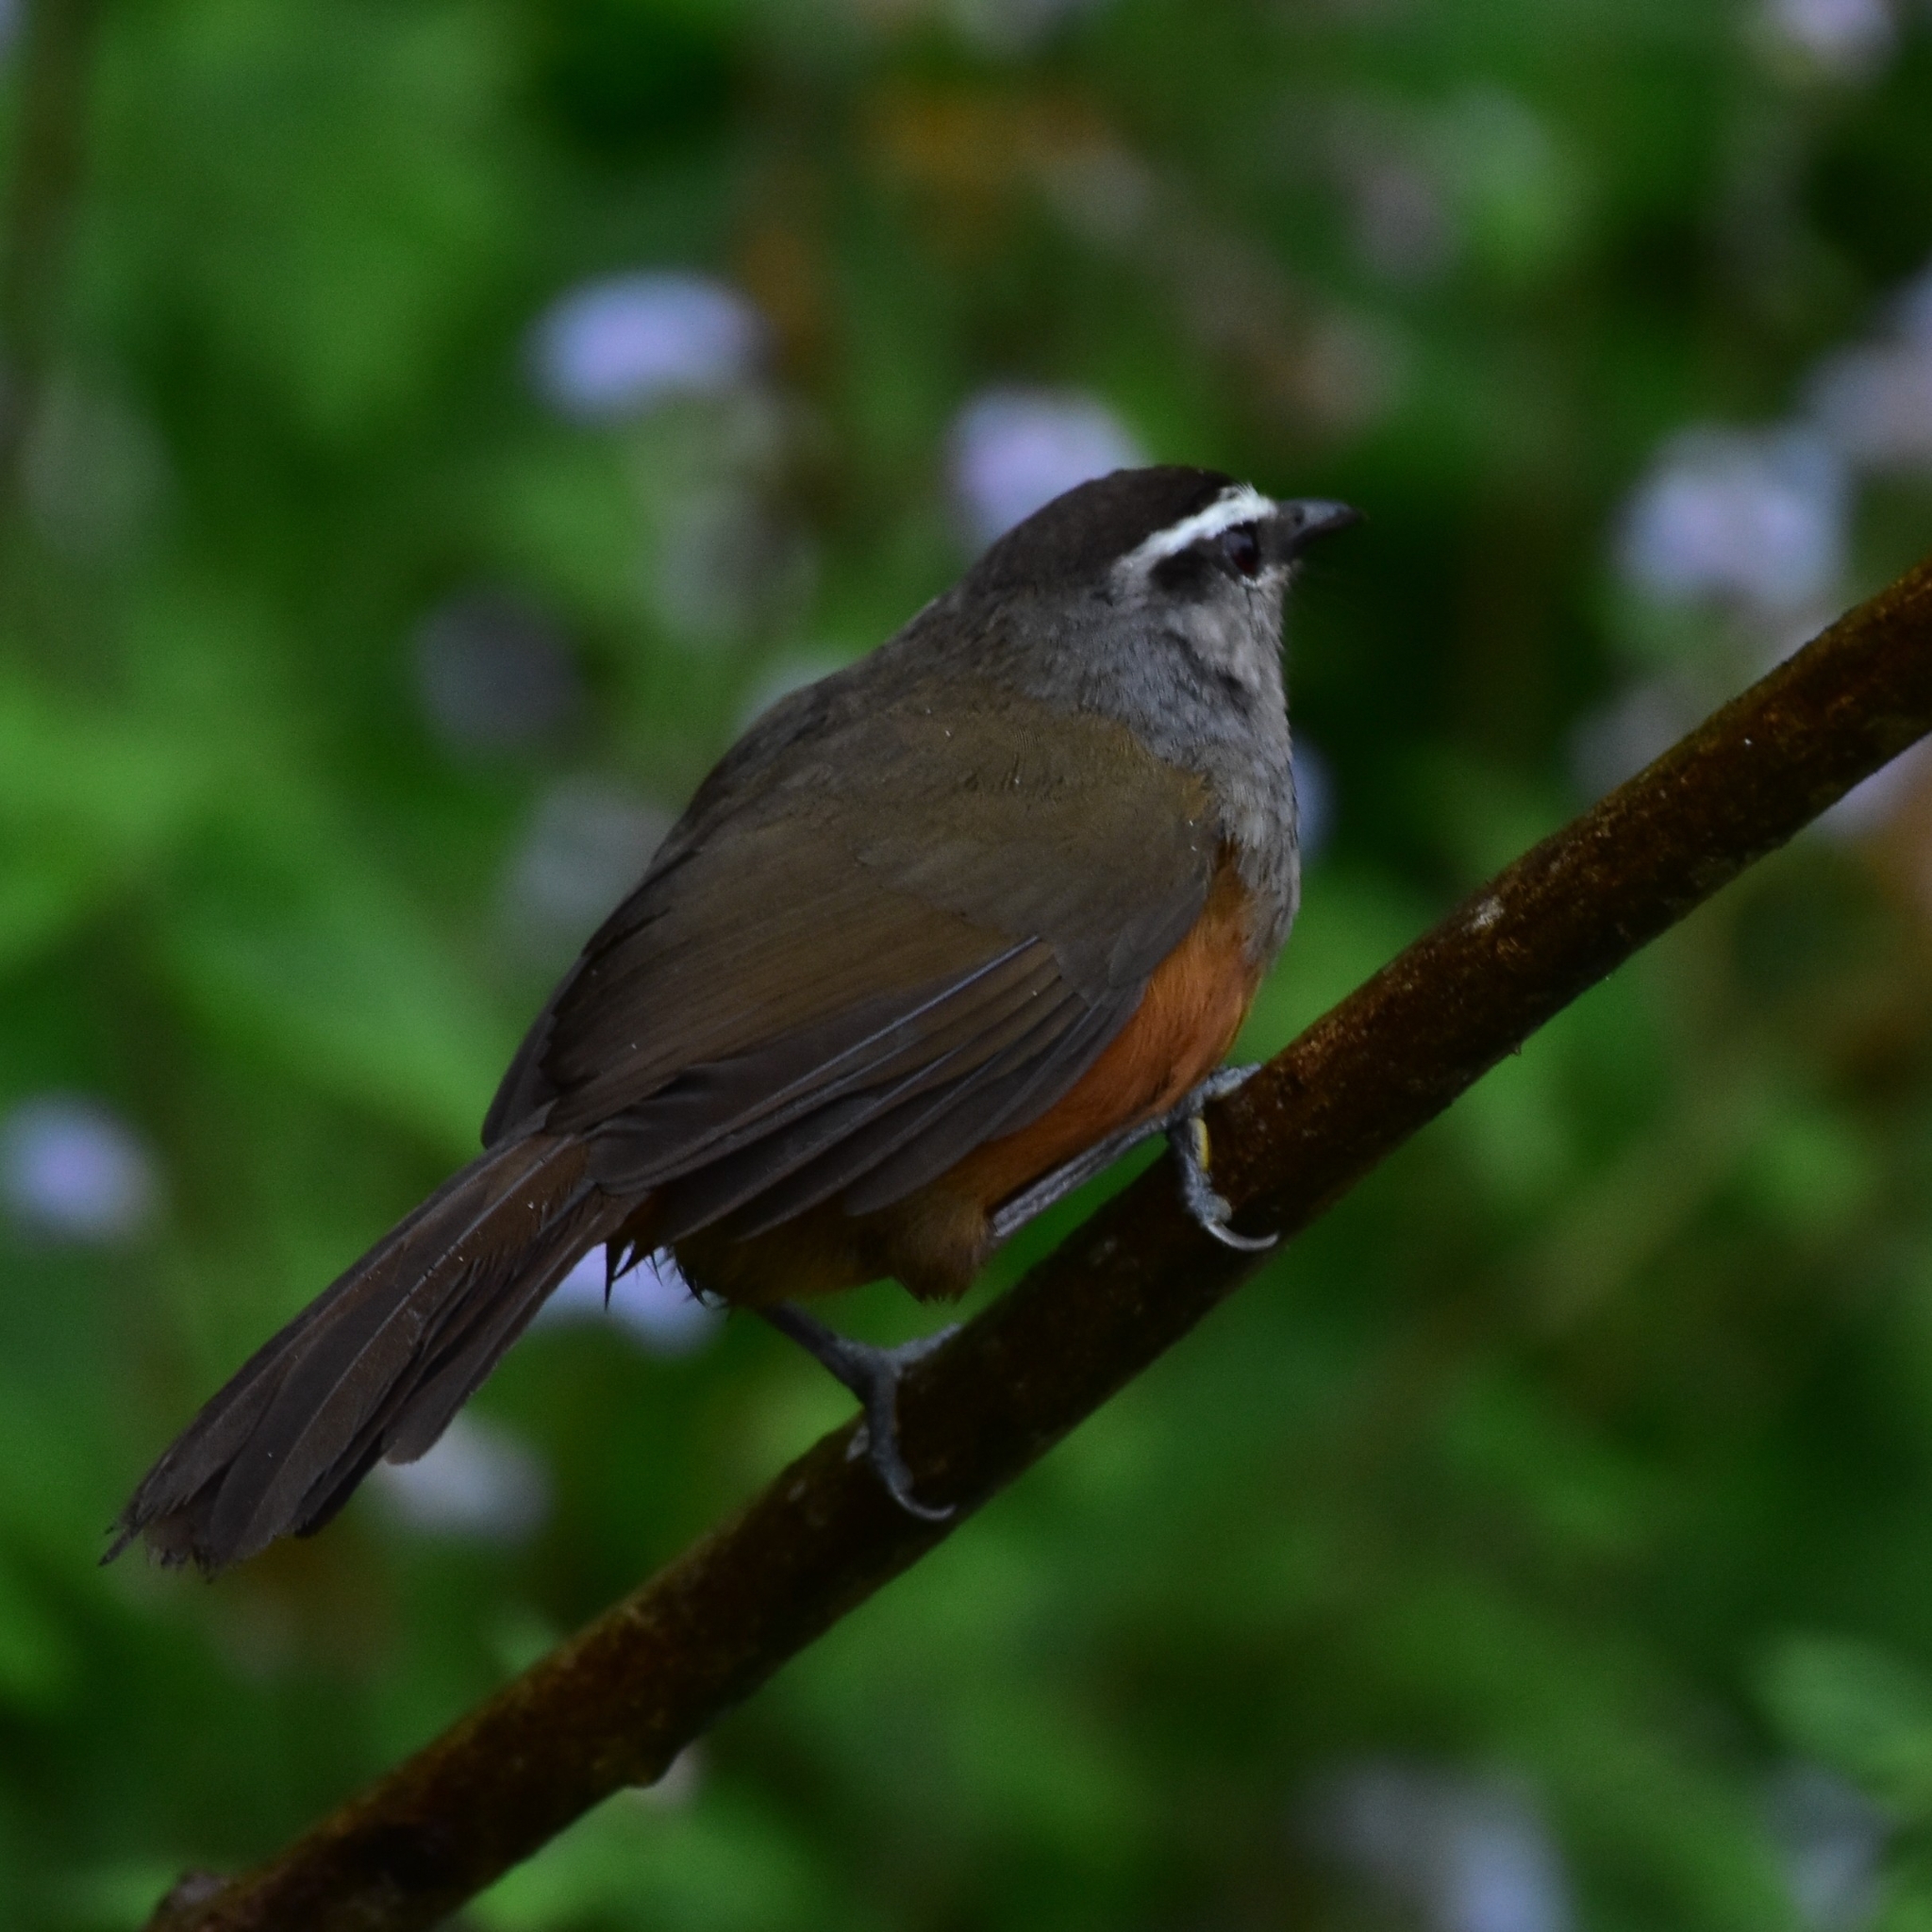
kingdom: Animalia
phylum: Chordata
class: Aves
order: Passeriformes
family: Leiothrichidae
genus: Trochalopteron
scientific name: Trochalopteron fairbanki
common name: Kerala laughingthrush
